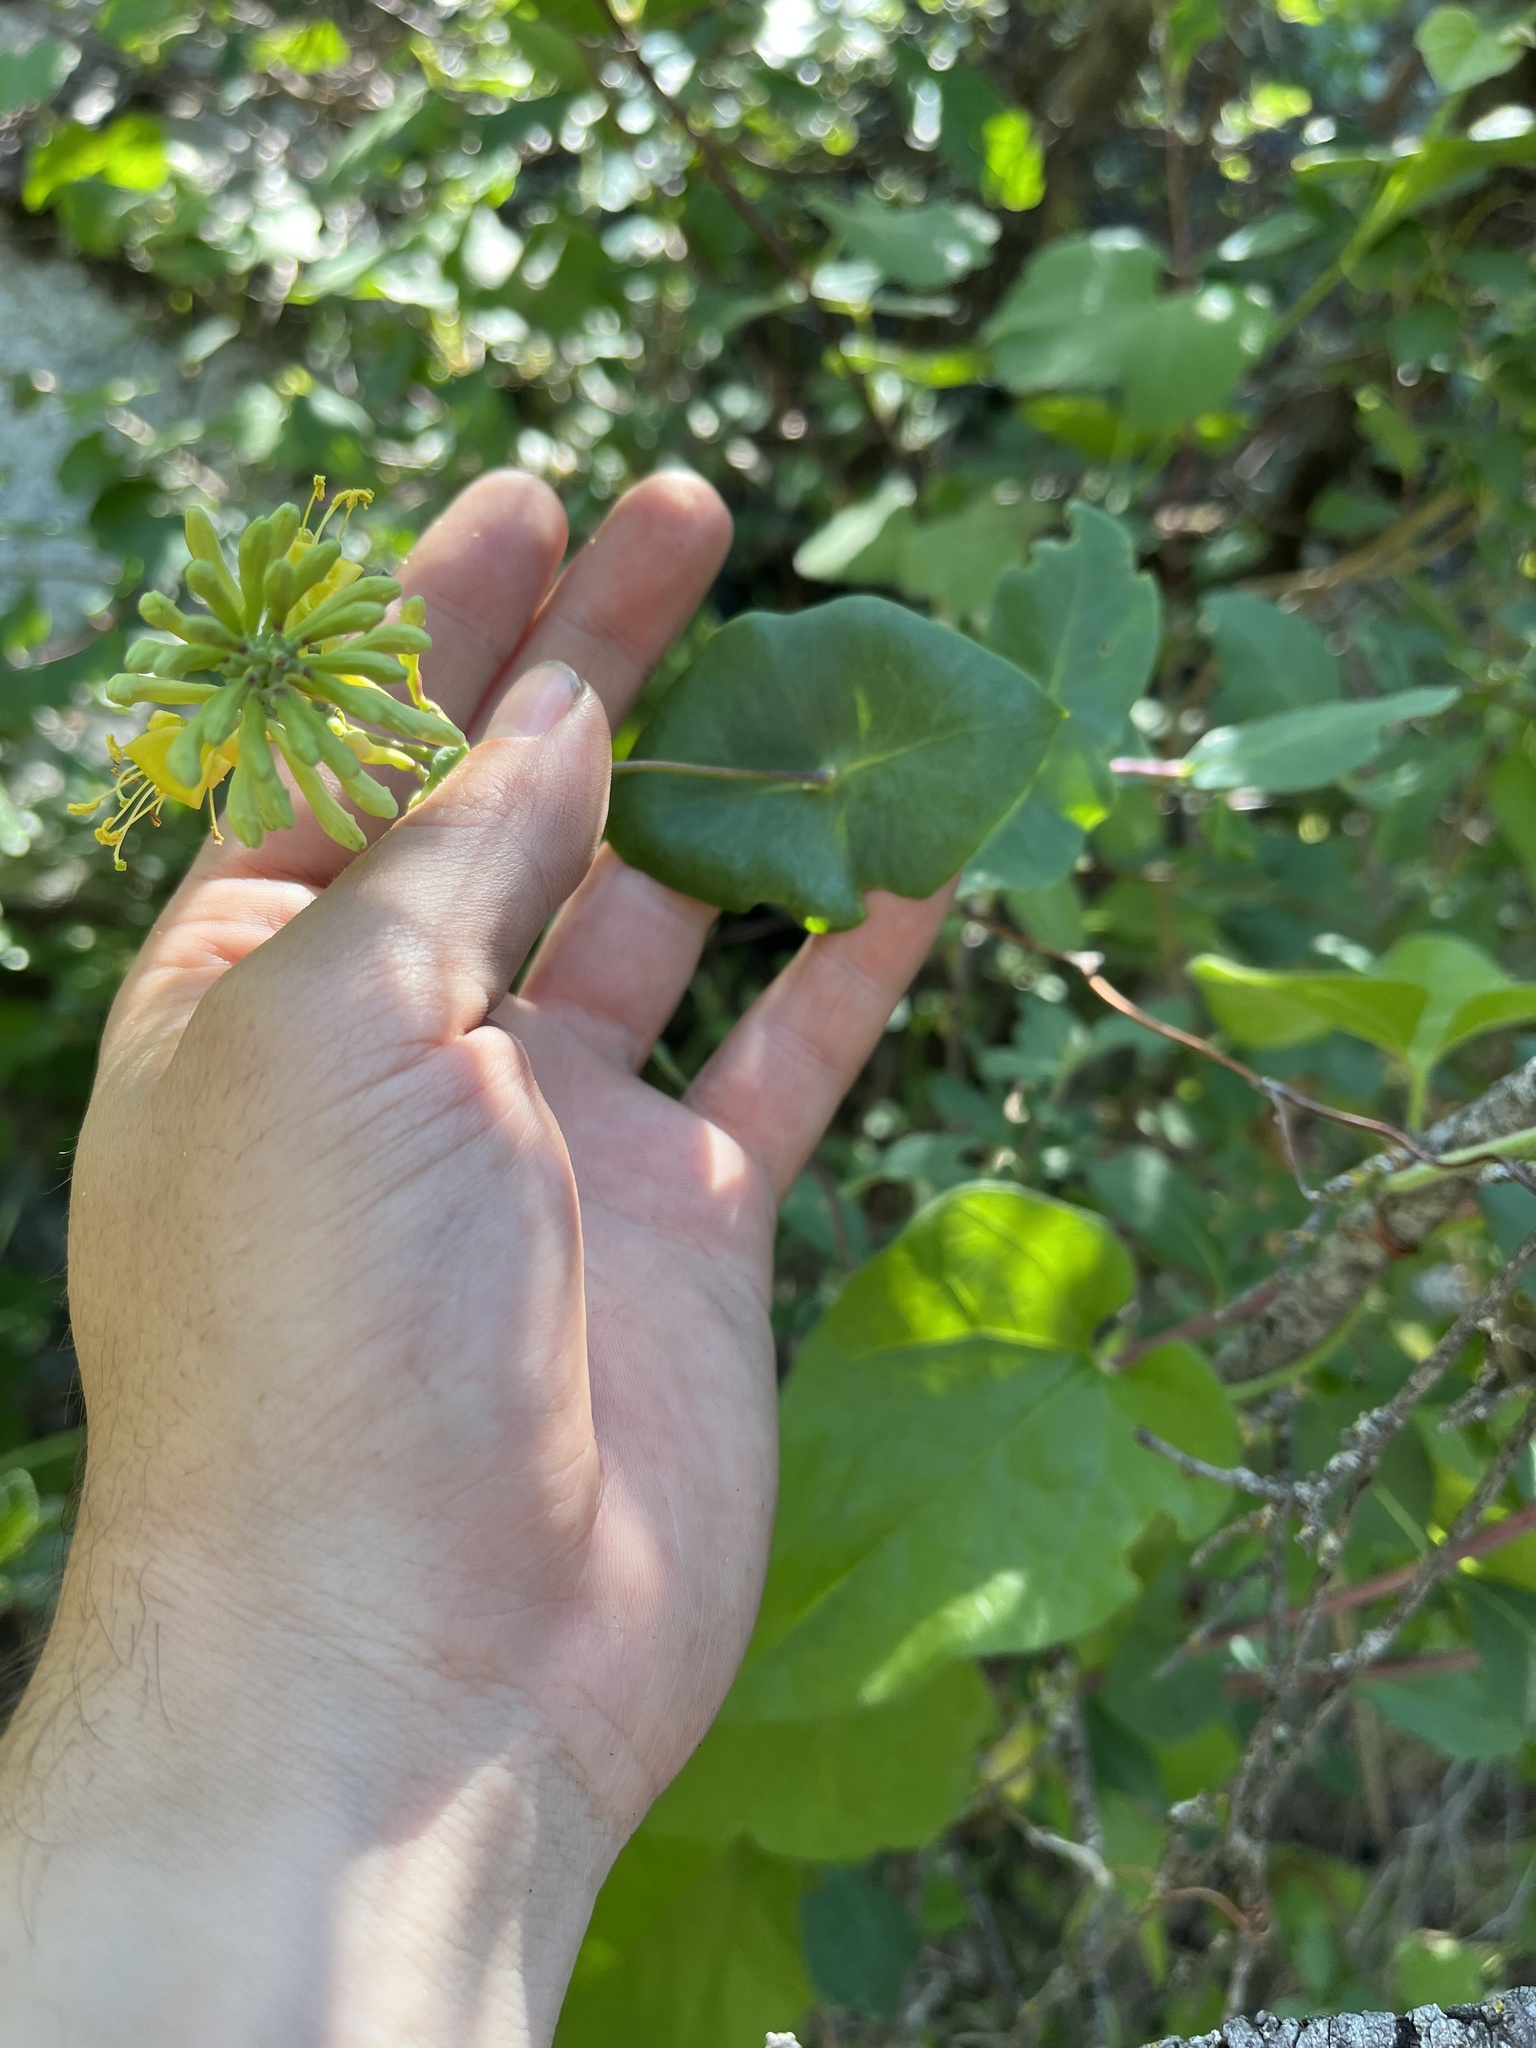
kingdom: Plantae
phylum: Tracheophyta
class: Magnoliopsida
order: Dipsacales
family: Caprifoliaceae
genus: Lonicera
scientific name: Lonicera interrupta
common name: Chaparral honeysuckle
